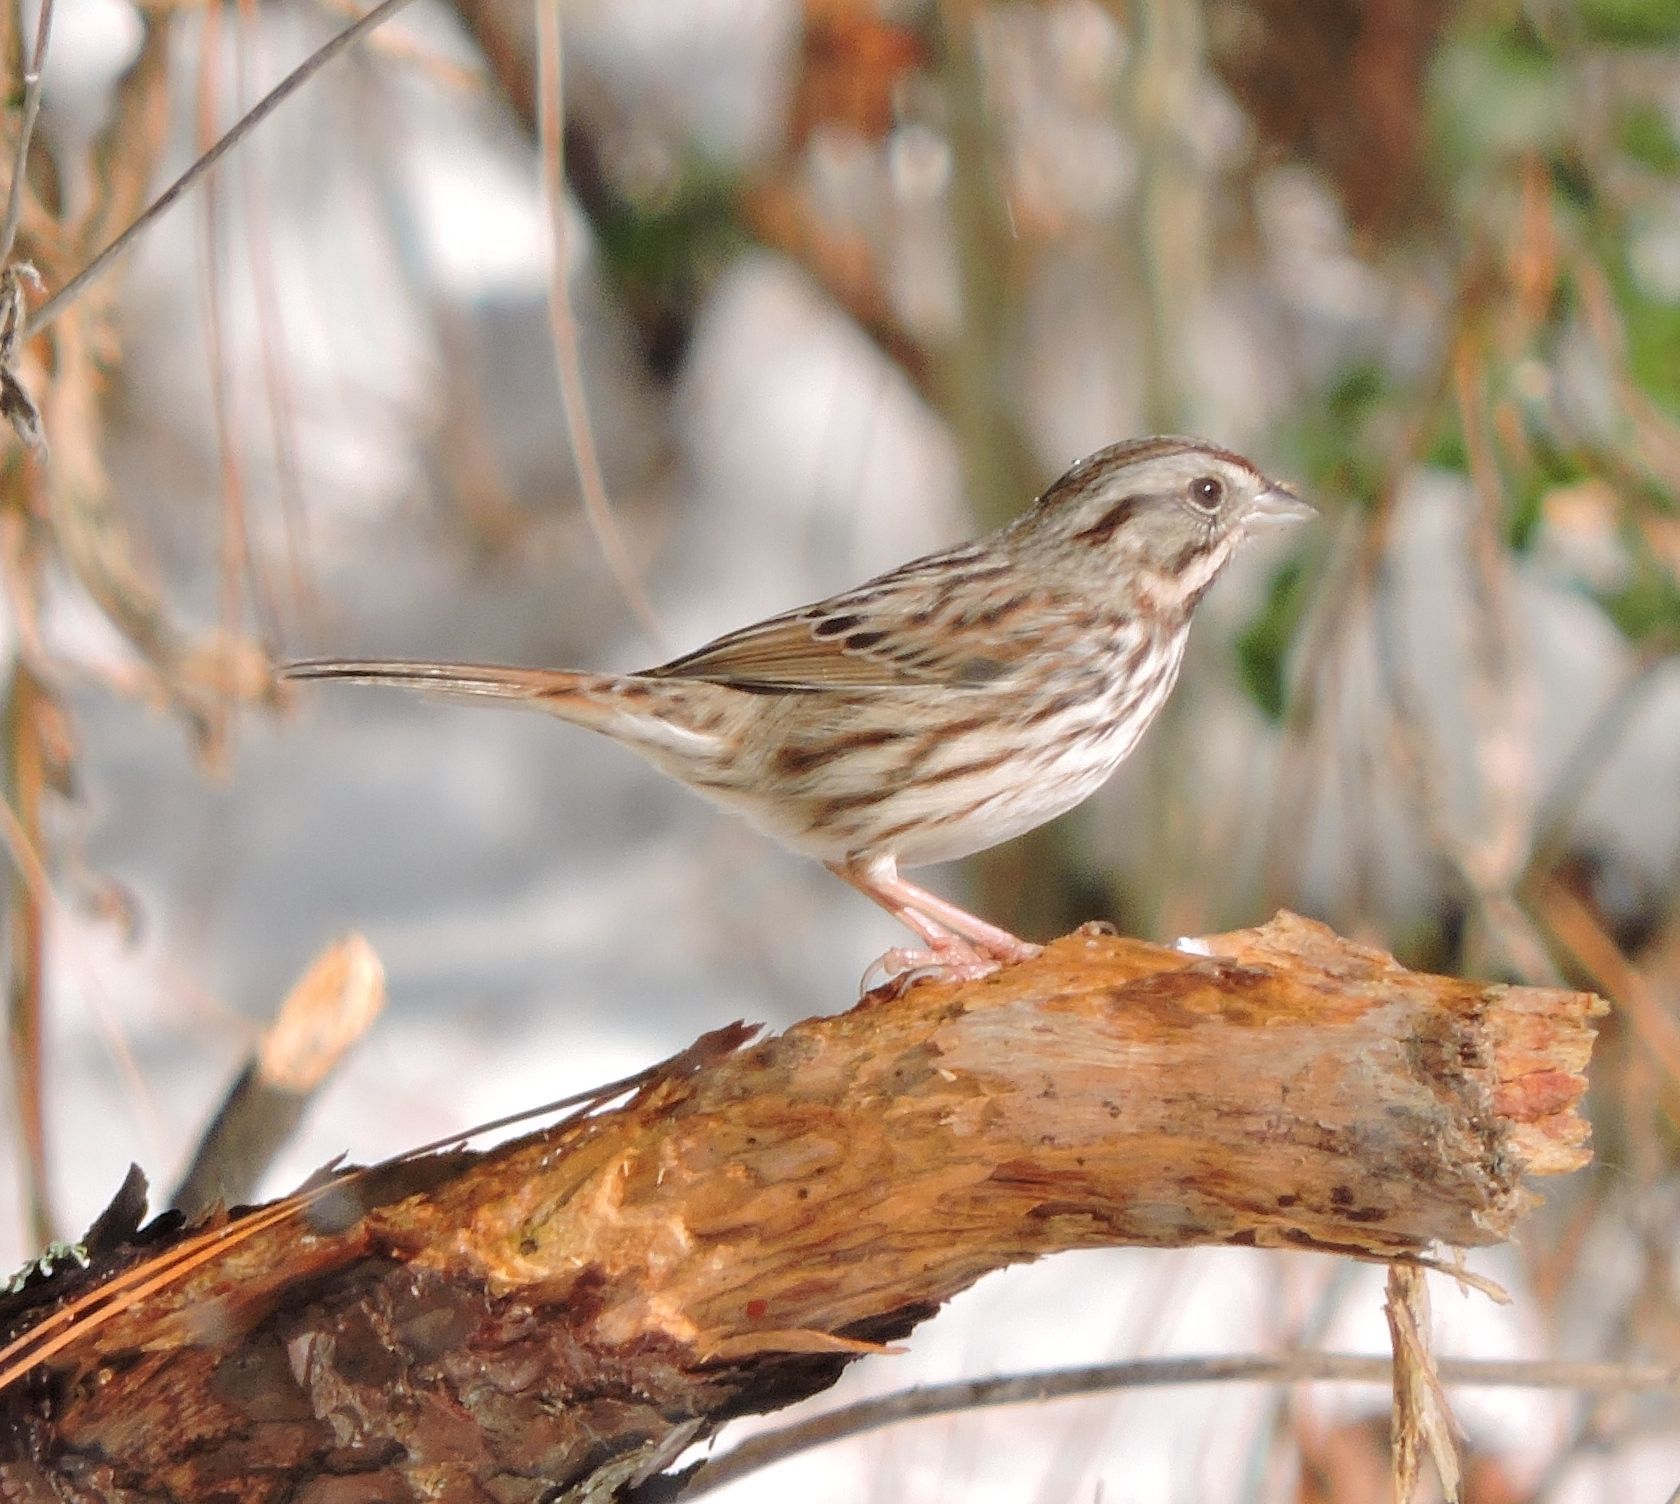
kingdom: Animalia
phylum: Chordata
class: Aves
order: Passeriformes
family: Passerellidae
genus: Melospiza
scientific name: Melospiza melodia
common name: Song sparrow
